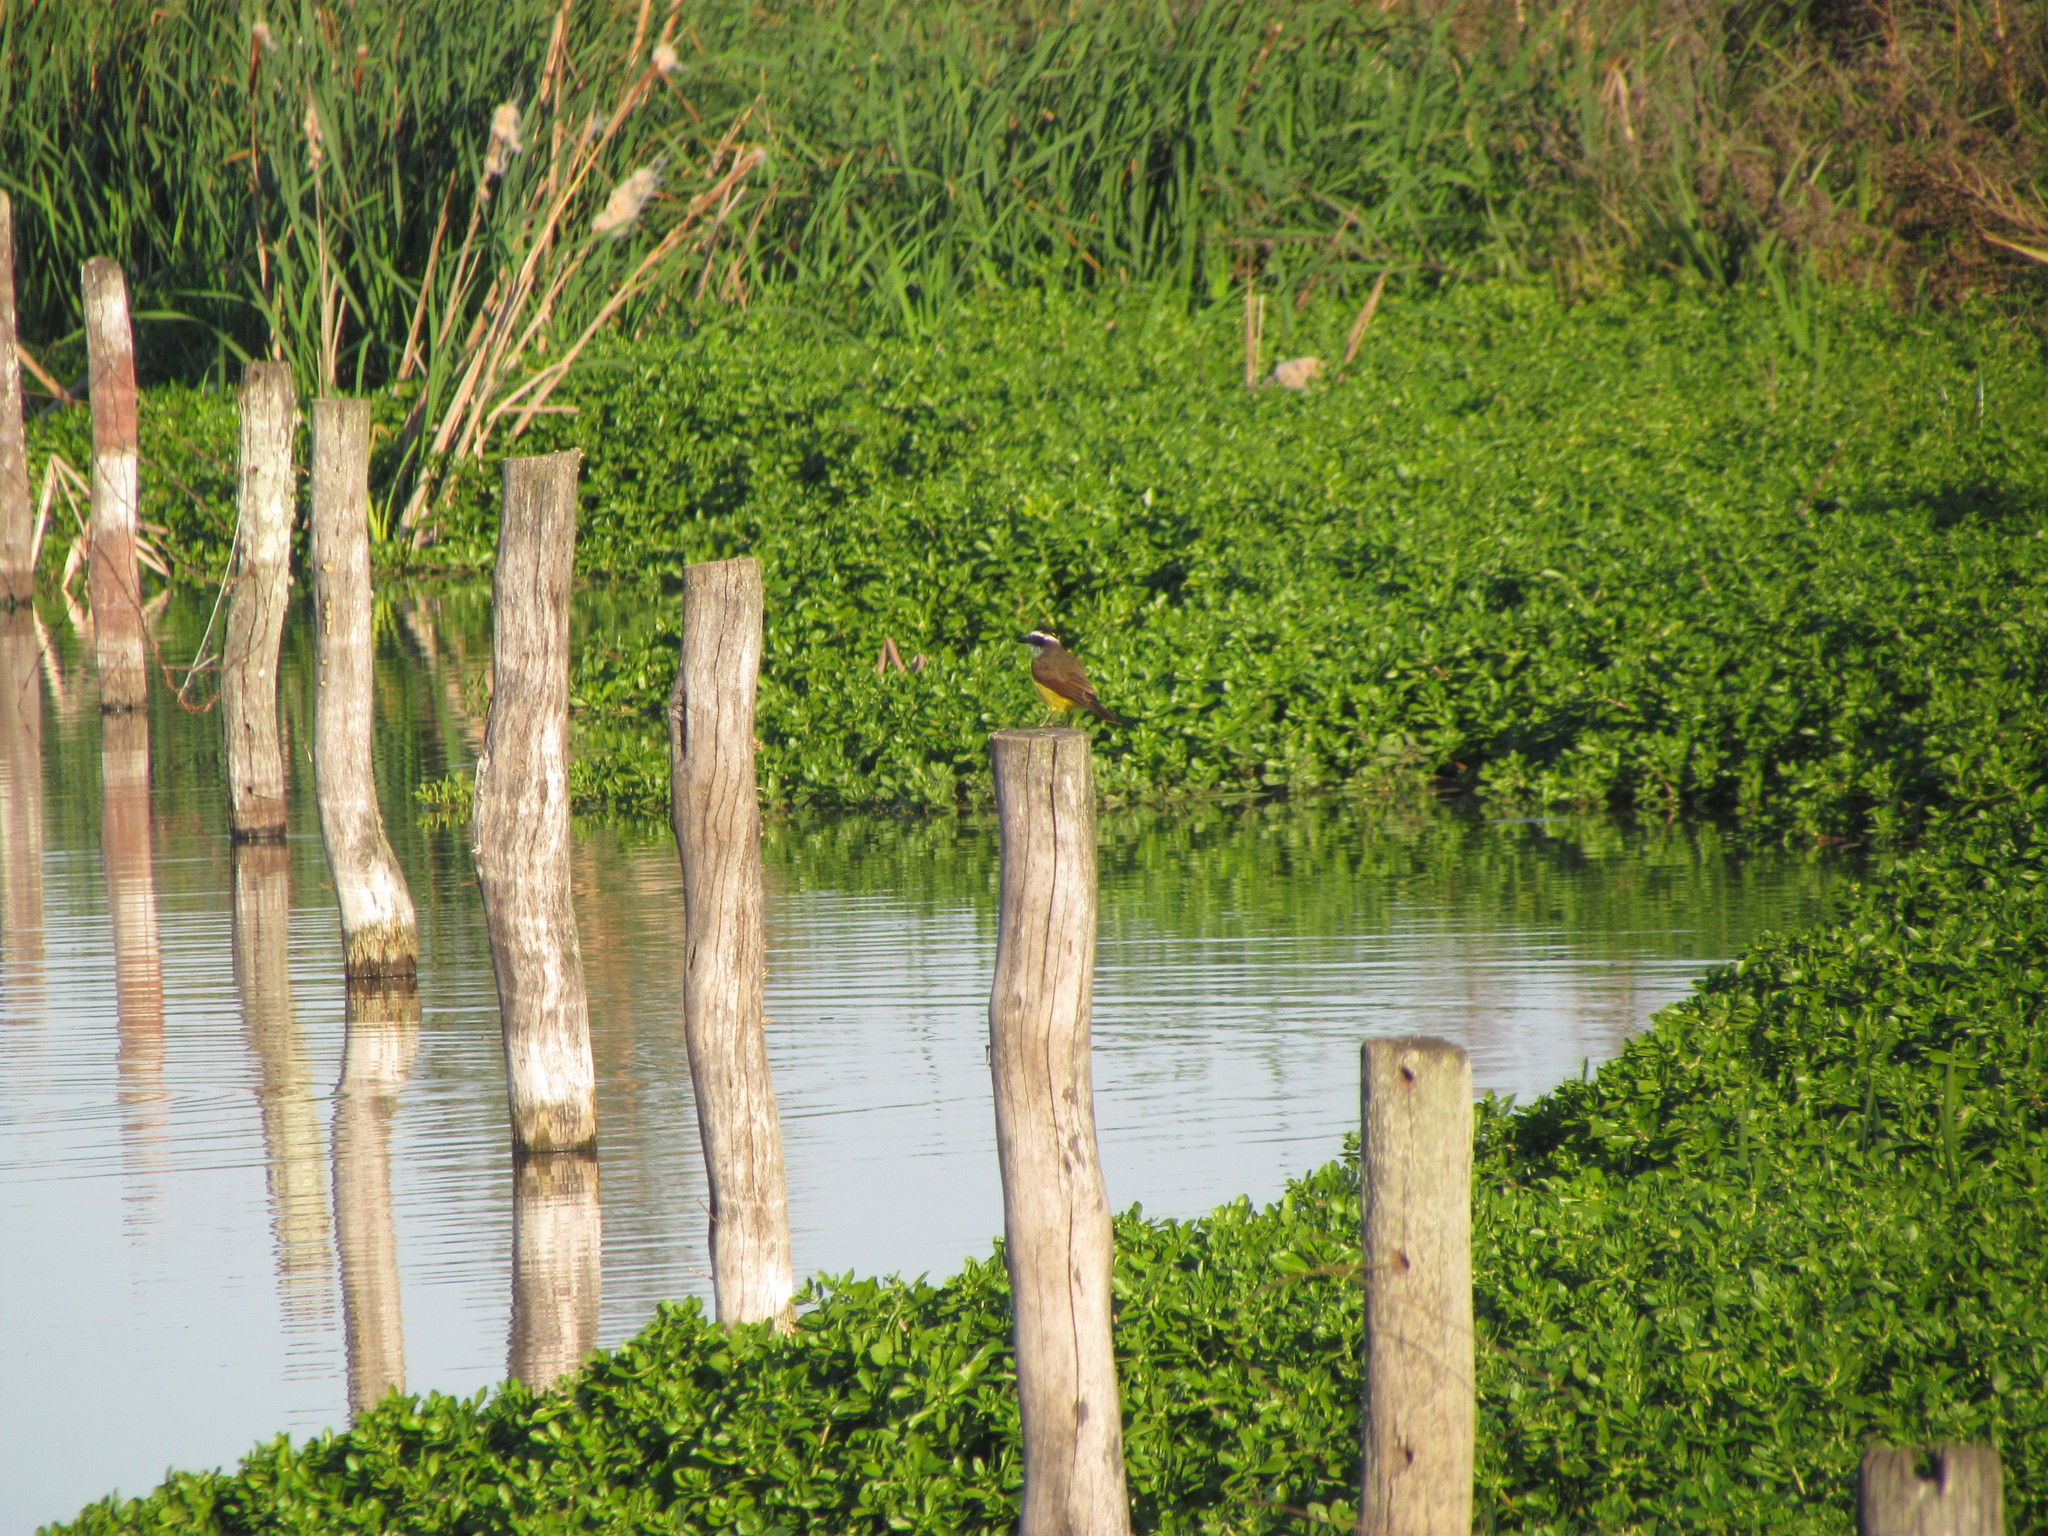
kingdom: Animalia
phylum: Chordata
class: Aves
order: Passeriformes
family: Tyrannidae
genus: Pitangus
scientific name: Pitangus sulphuratus
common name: Great kiskadee
